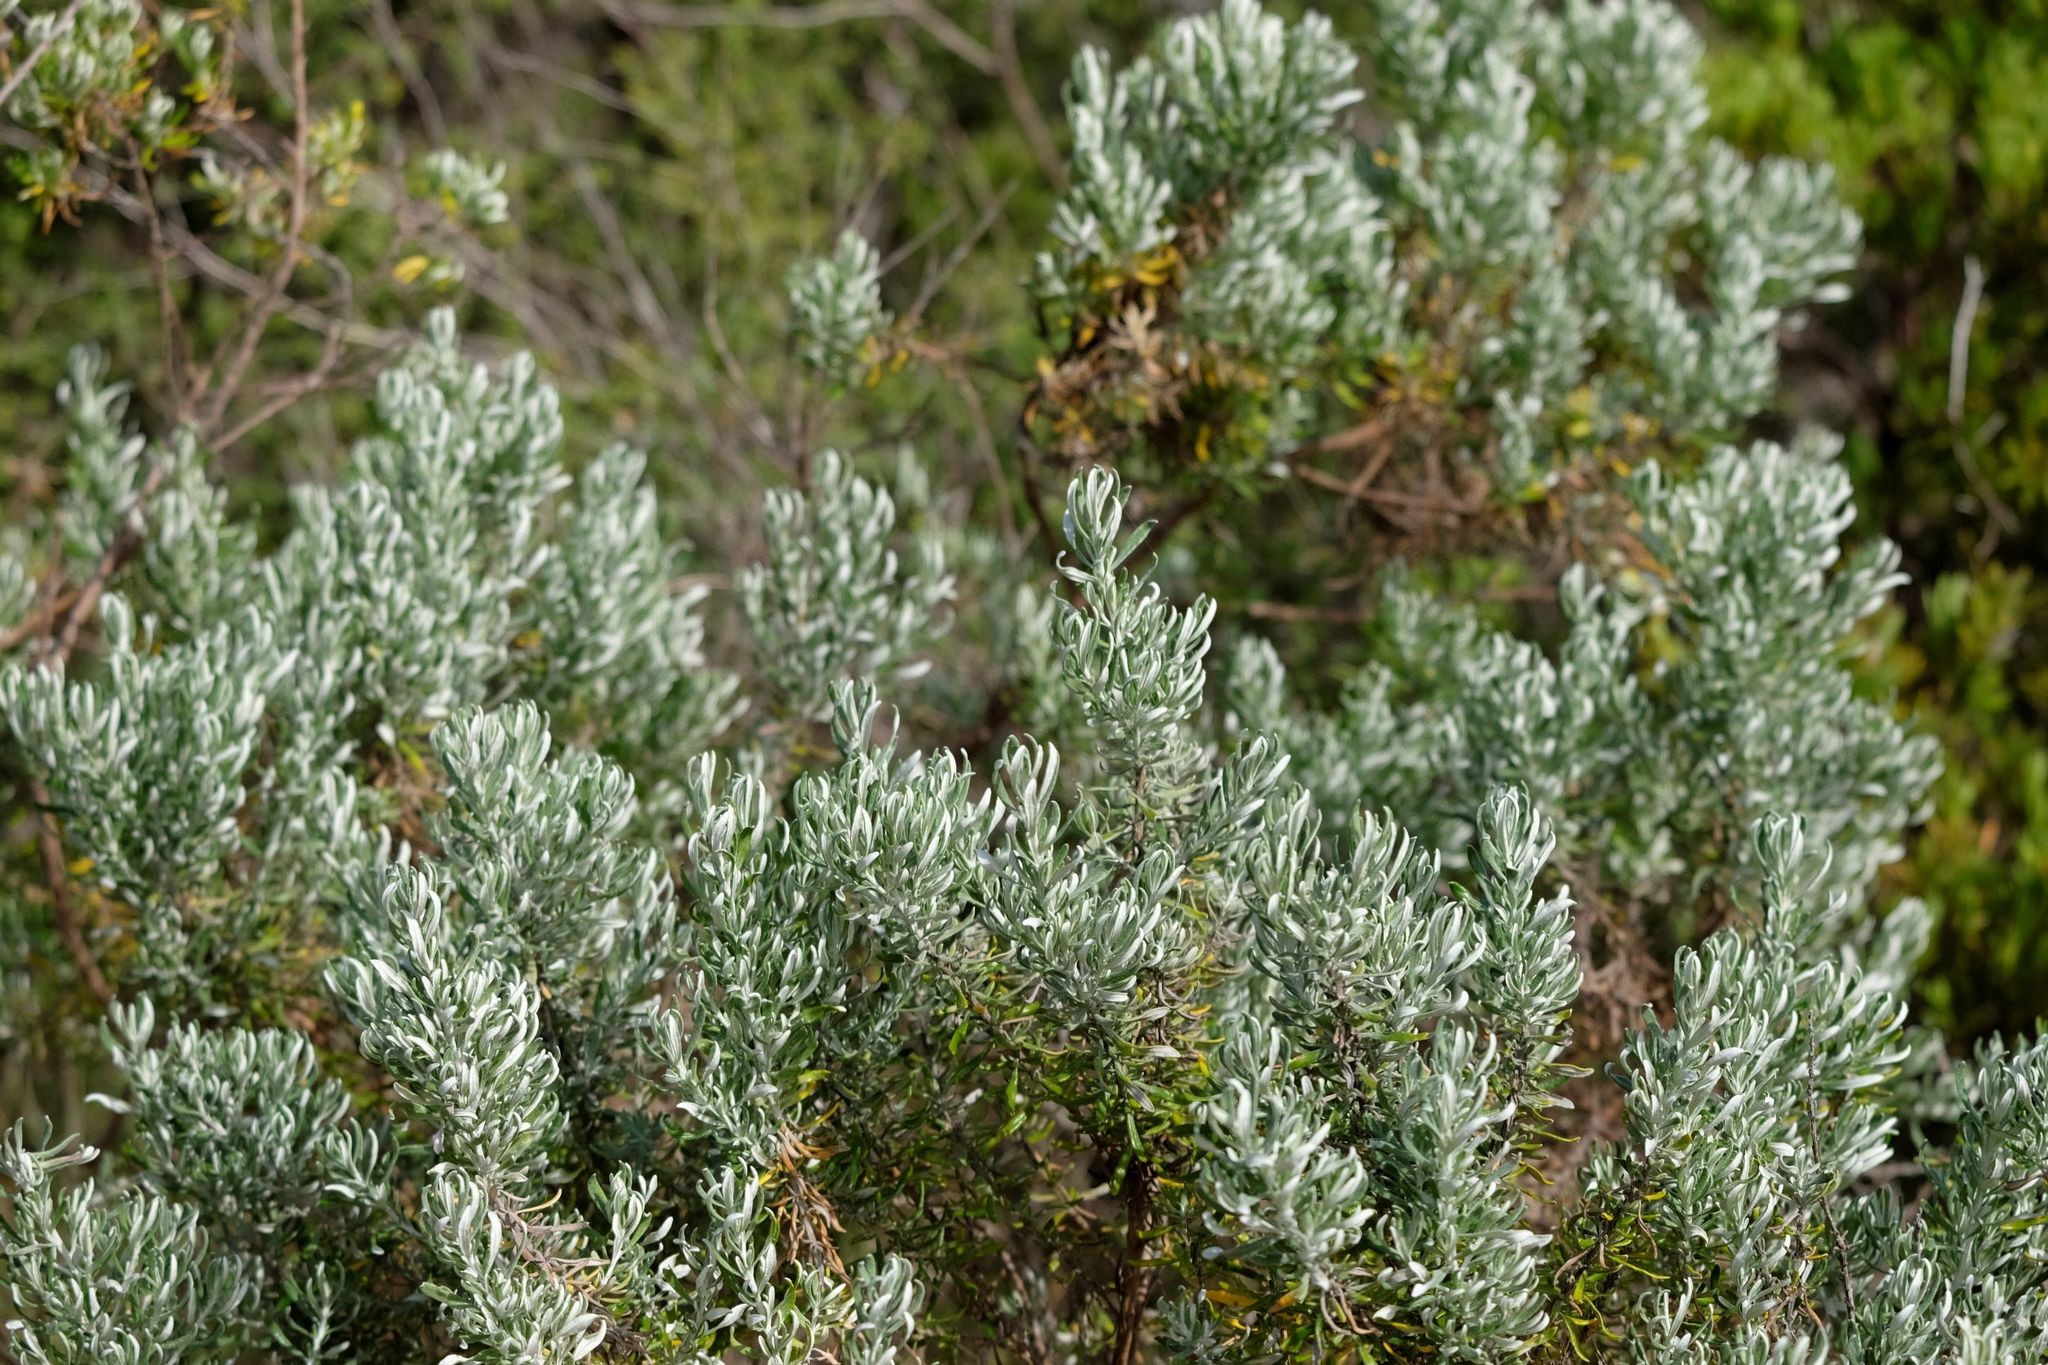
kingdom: Plantae
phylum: Tracheophyta
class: Magnoliopsida
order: Asterales
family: Asteraceae
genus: Olearia
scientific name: Olearia axillaris
